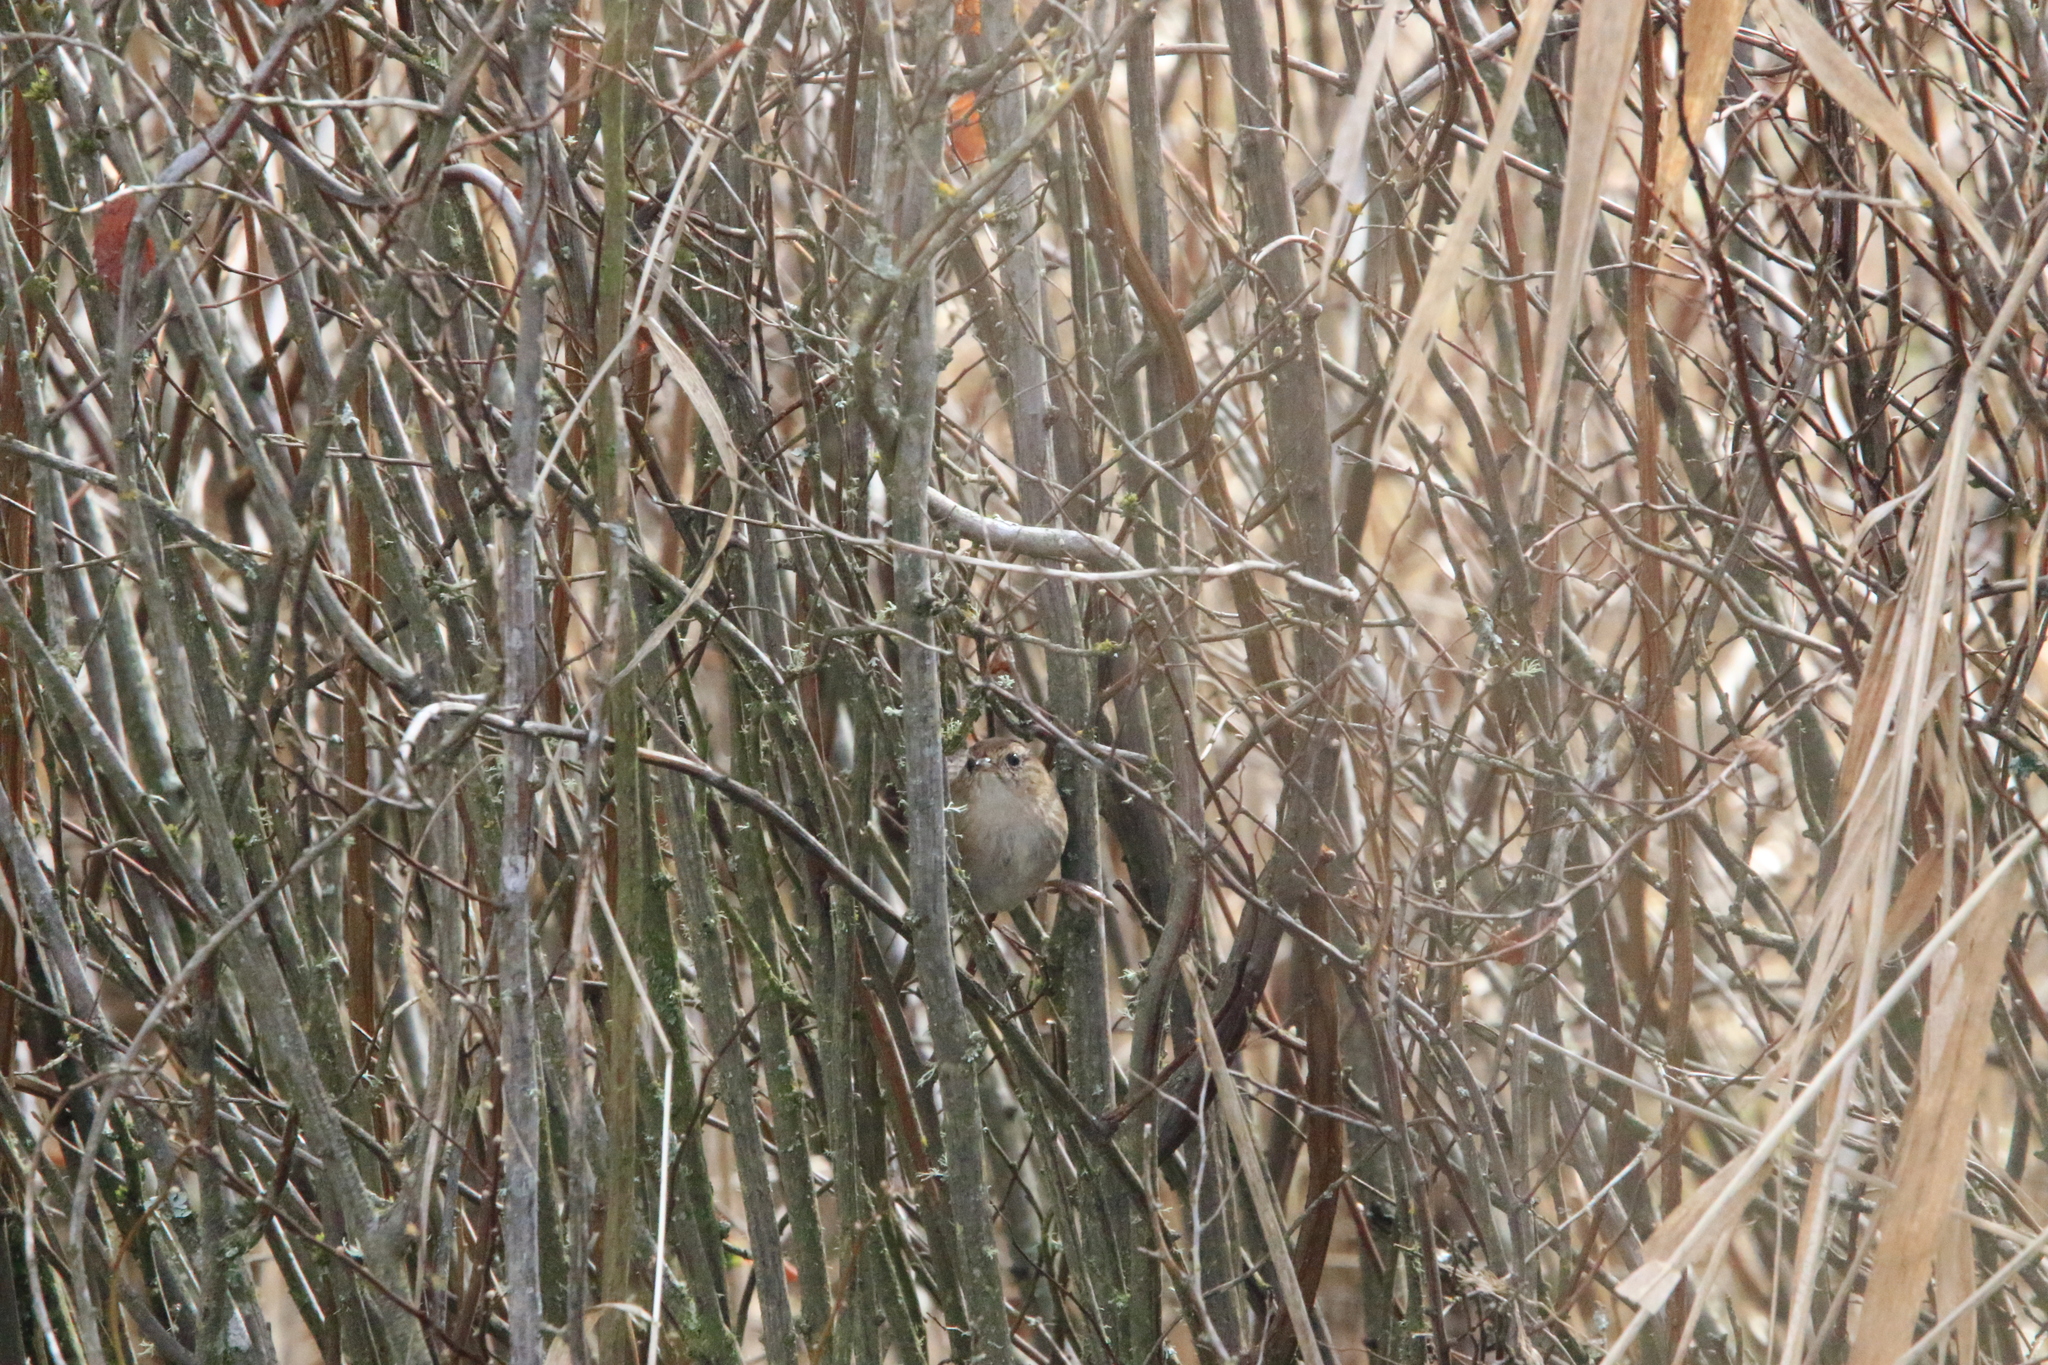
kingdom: Animalia
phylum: Chordata
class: Aves
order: Passeriformes
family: Troglodytidae
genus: Cistothorus
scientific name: Cistothorus palustris
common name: Marsh wren
